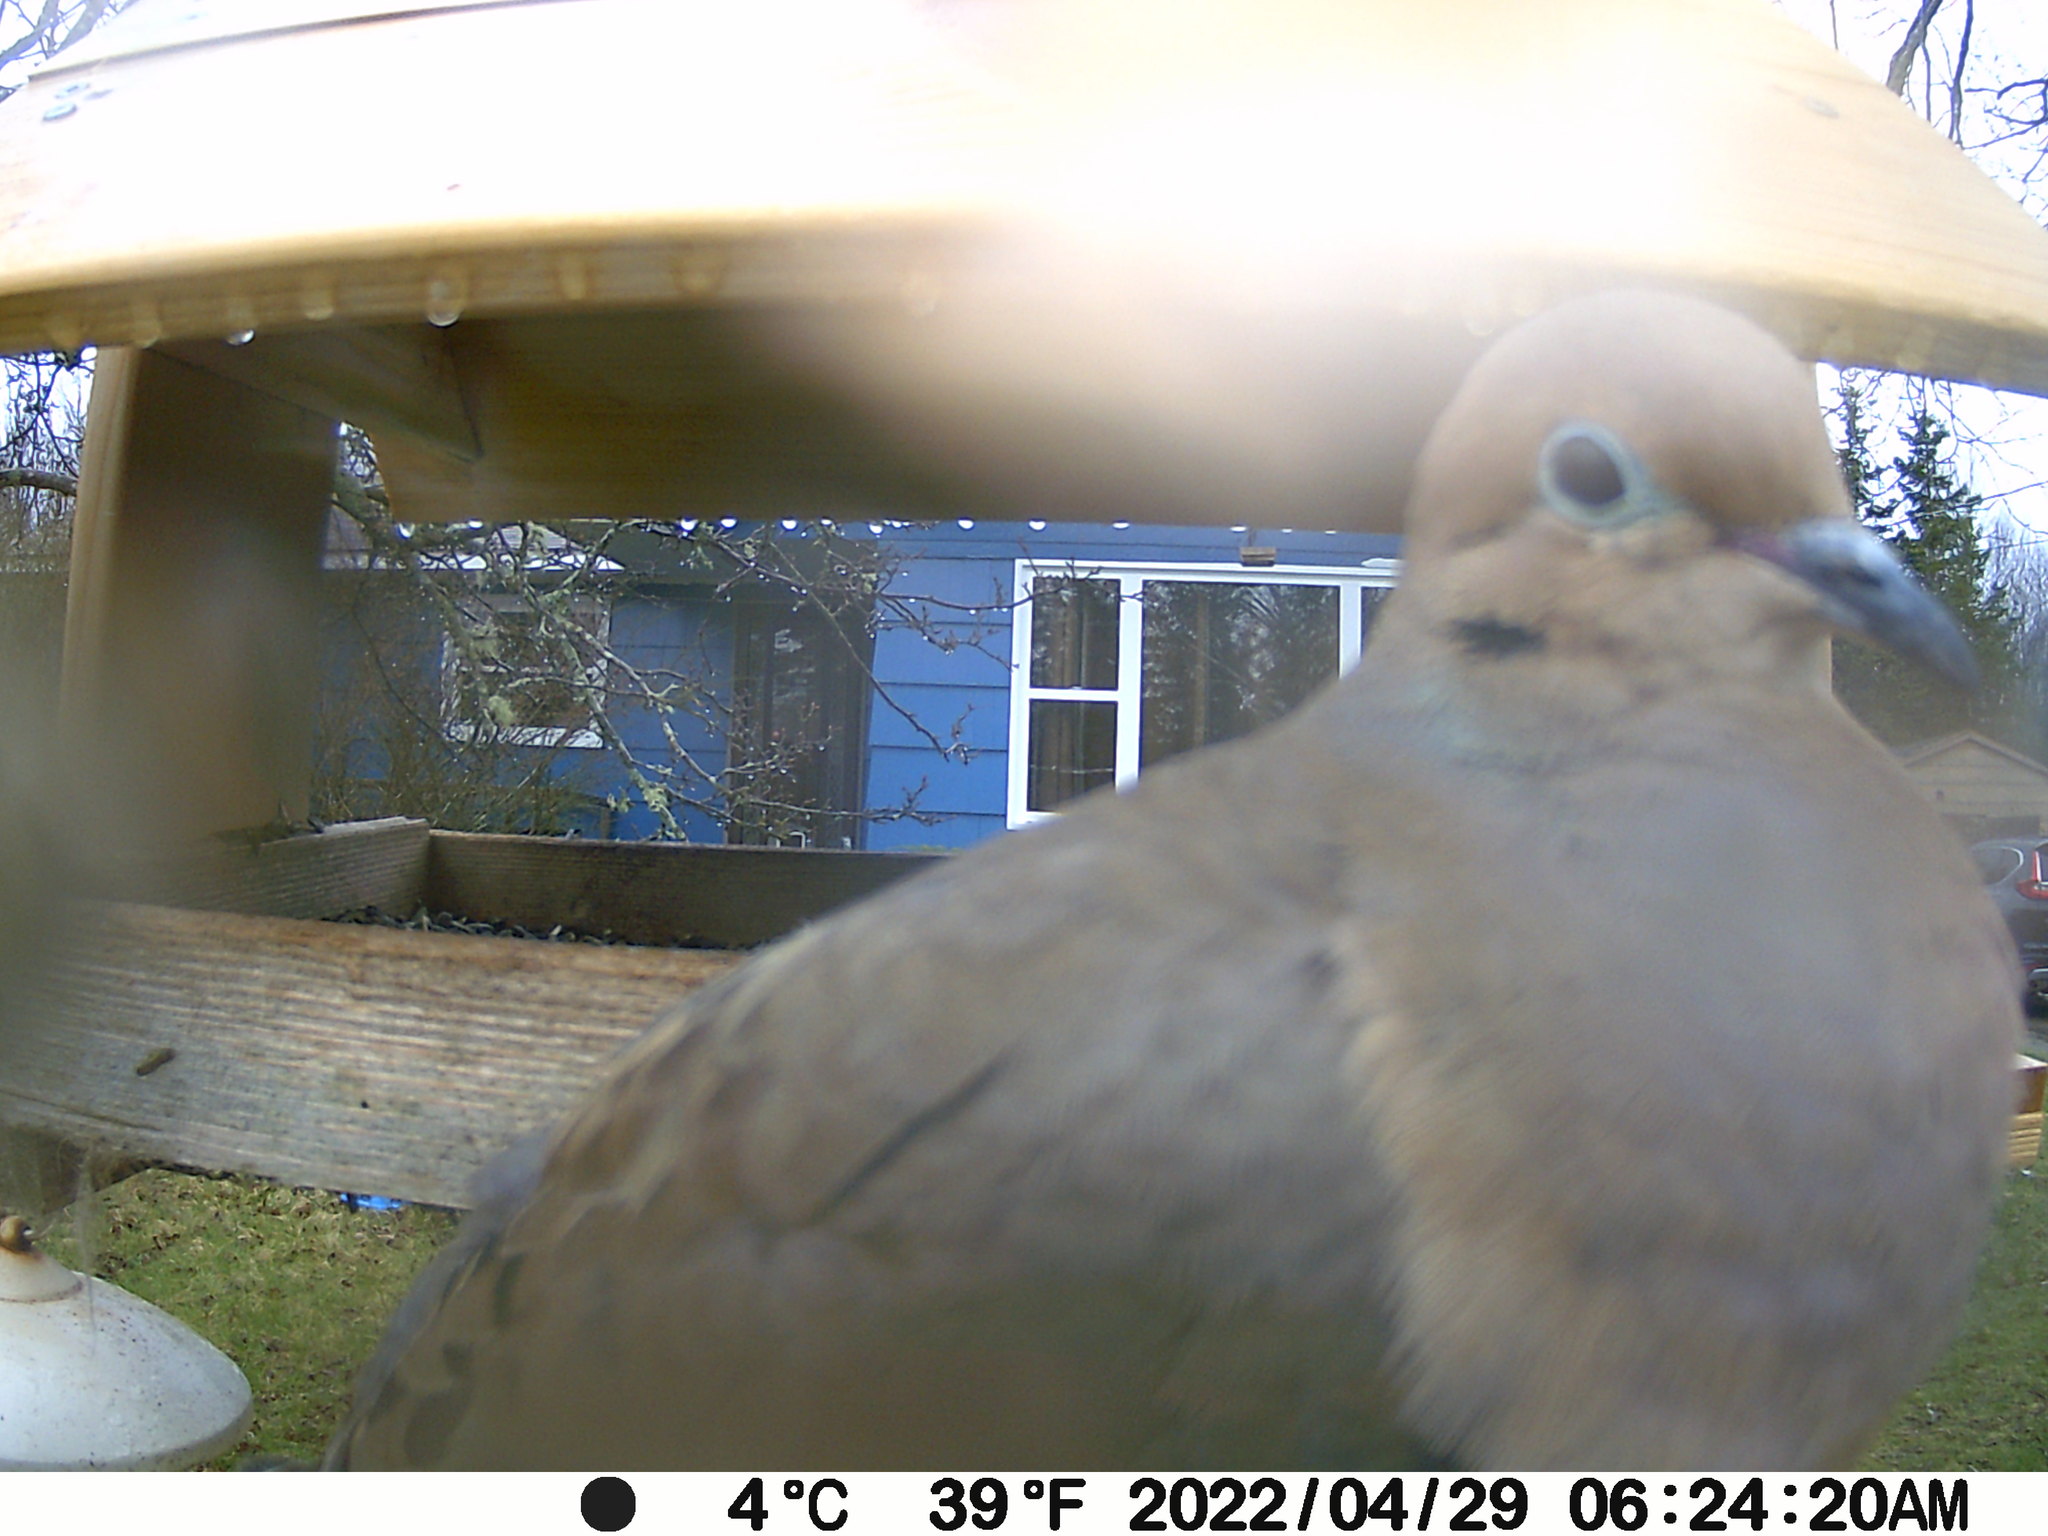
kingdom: Animalia
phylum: Chordata
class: Aves
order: Columbiformes
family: Columbidae
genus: Zenaida
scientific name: Zenaida macroura
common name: Mourning dove
